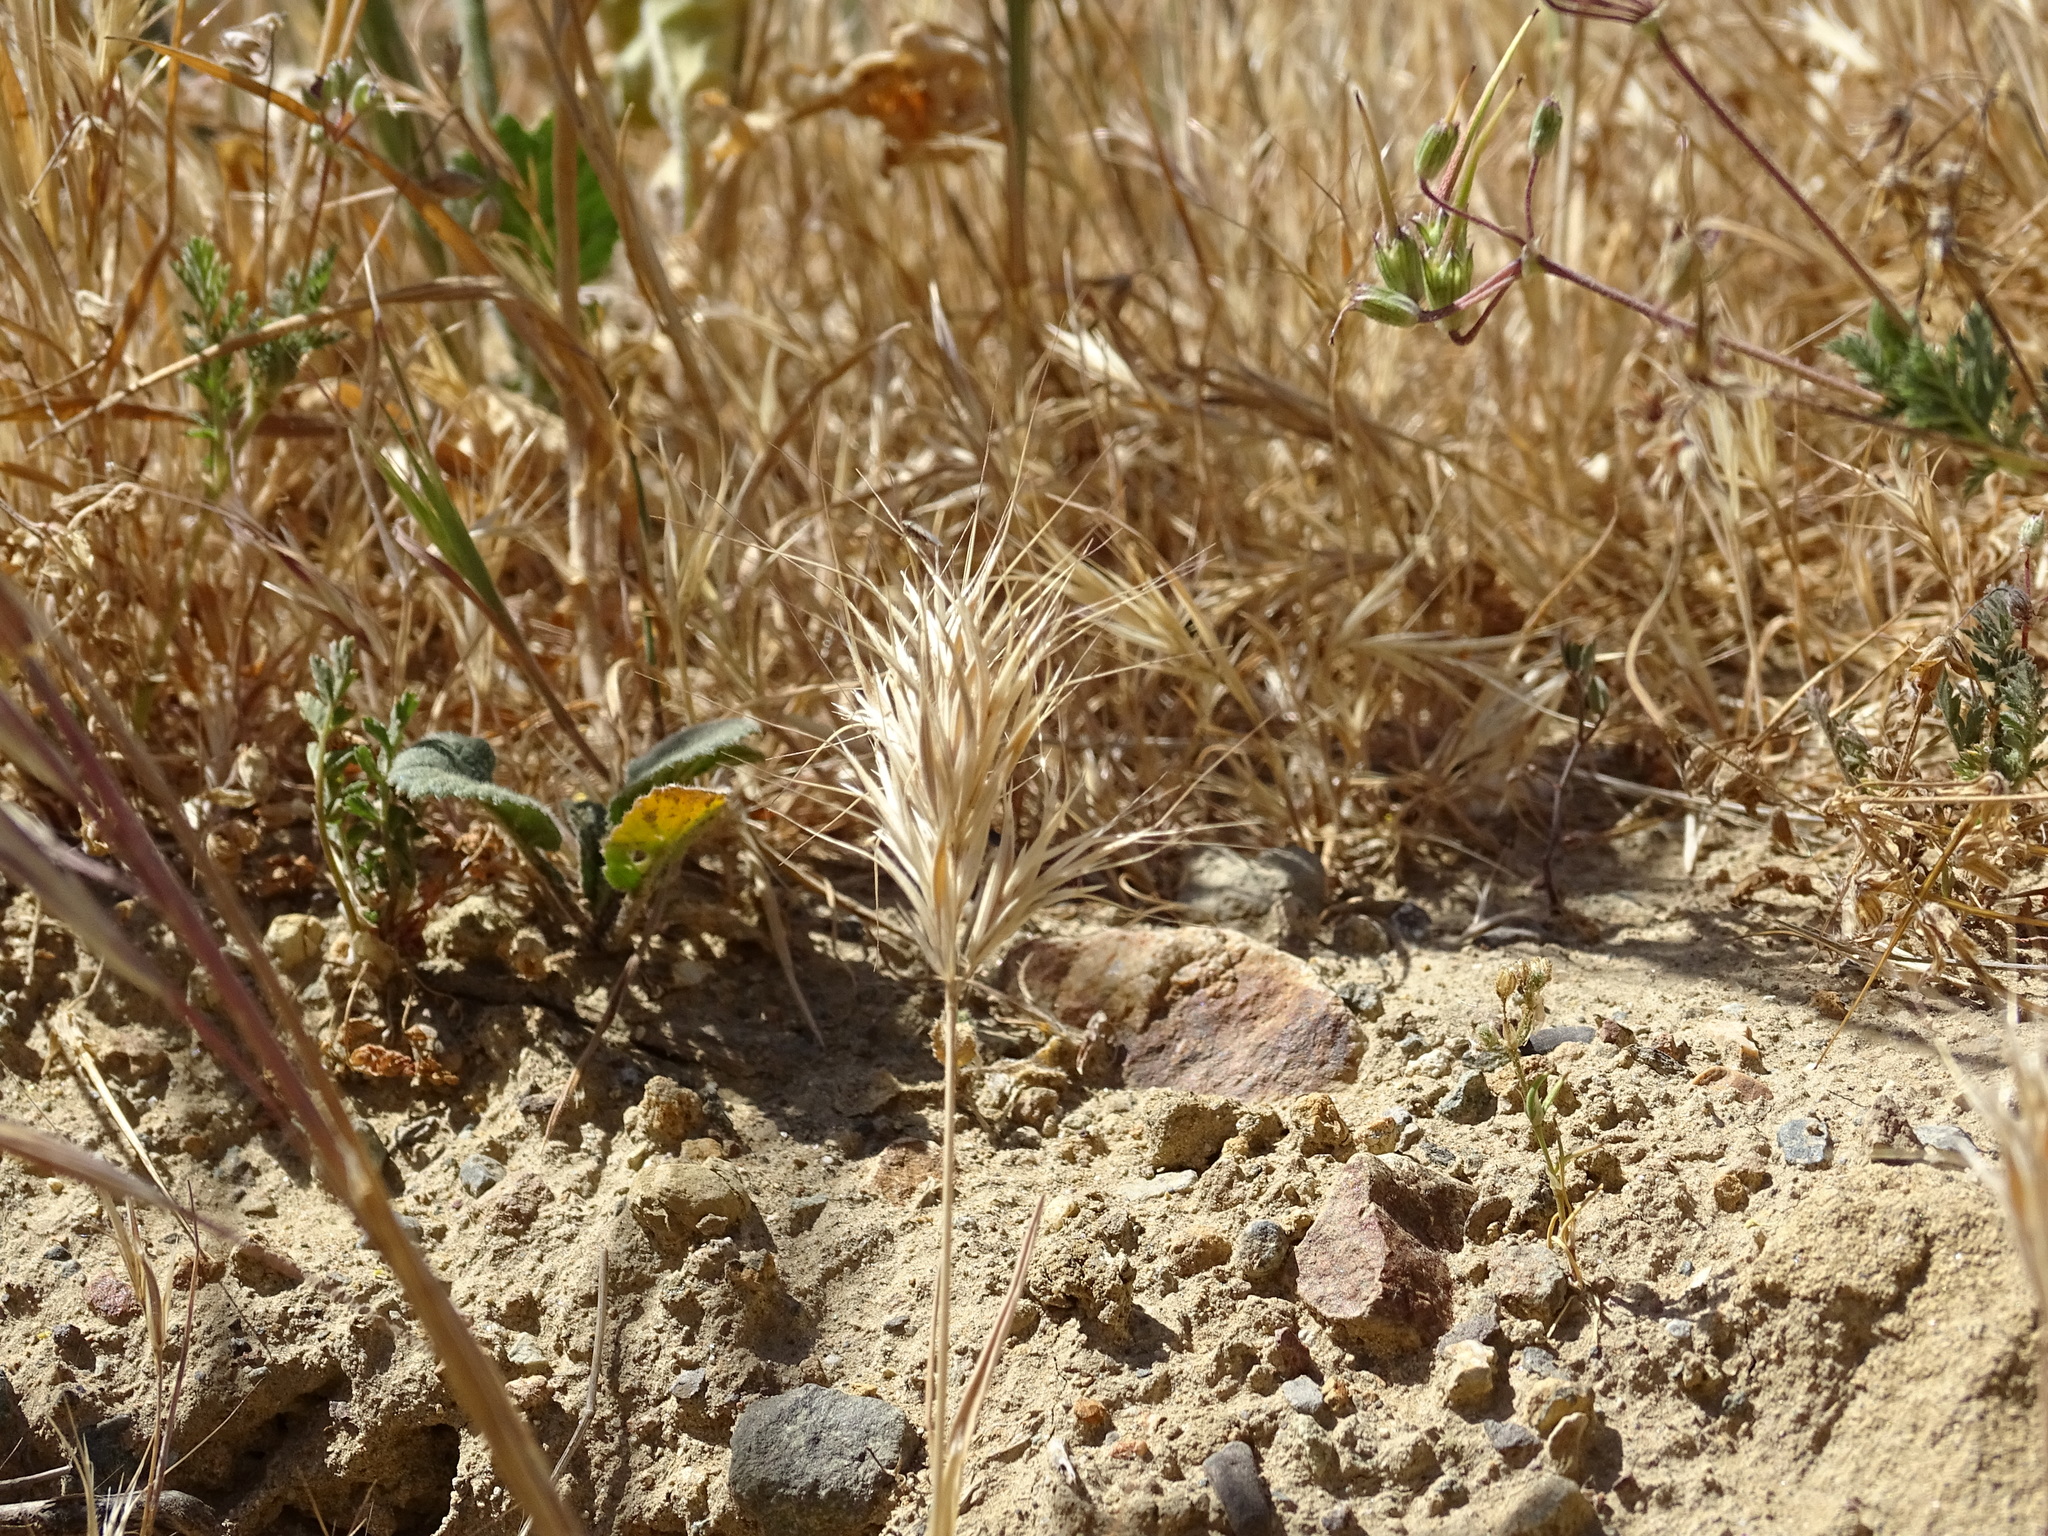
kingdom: Plantae
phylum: Tracheophyta
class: Liliopsida
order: Poales
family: Poaceae
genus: Bromus
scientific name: Bromus madritensis
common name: Compact brome
